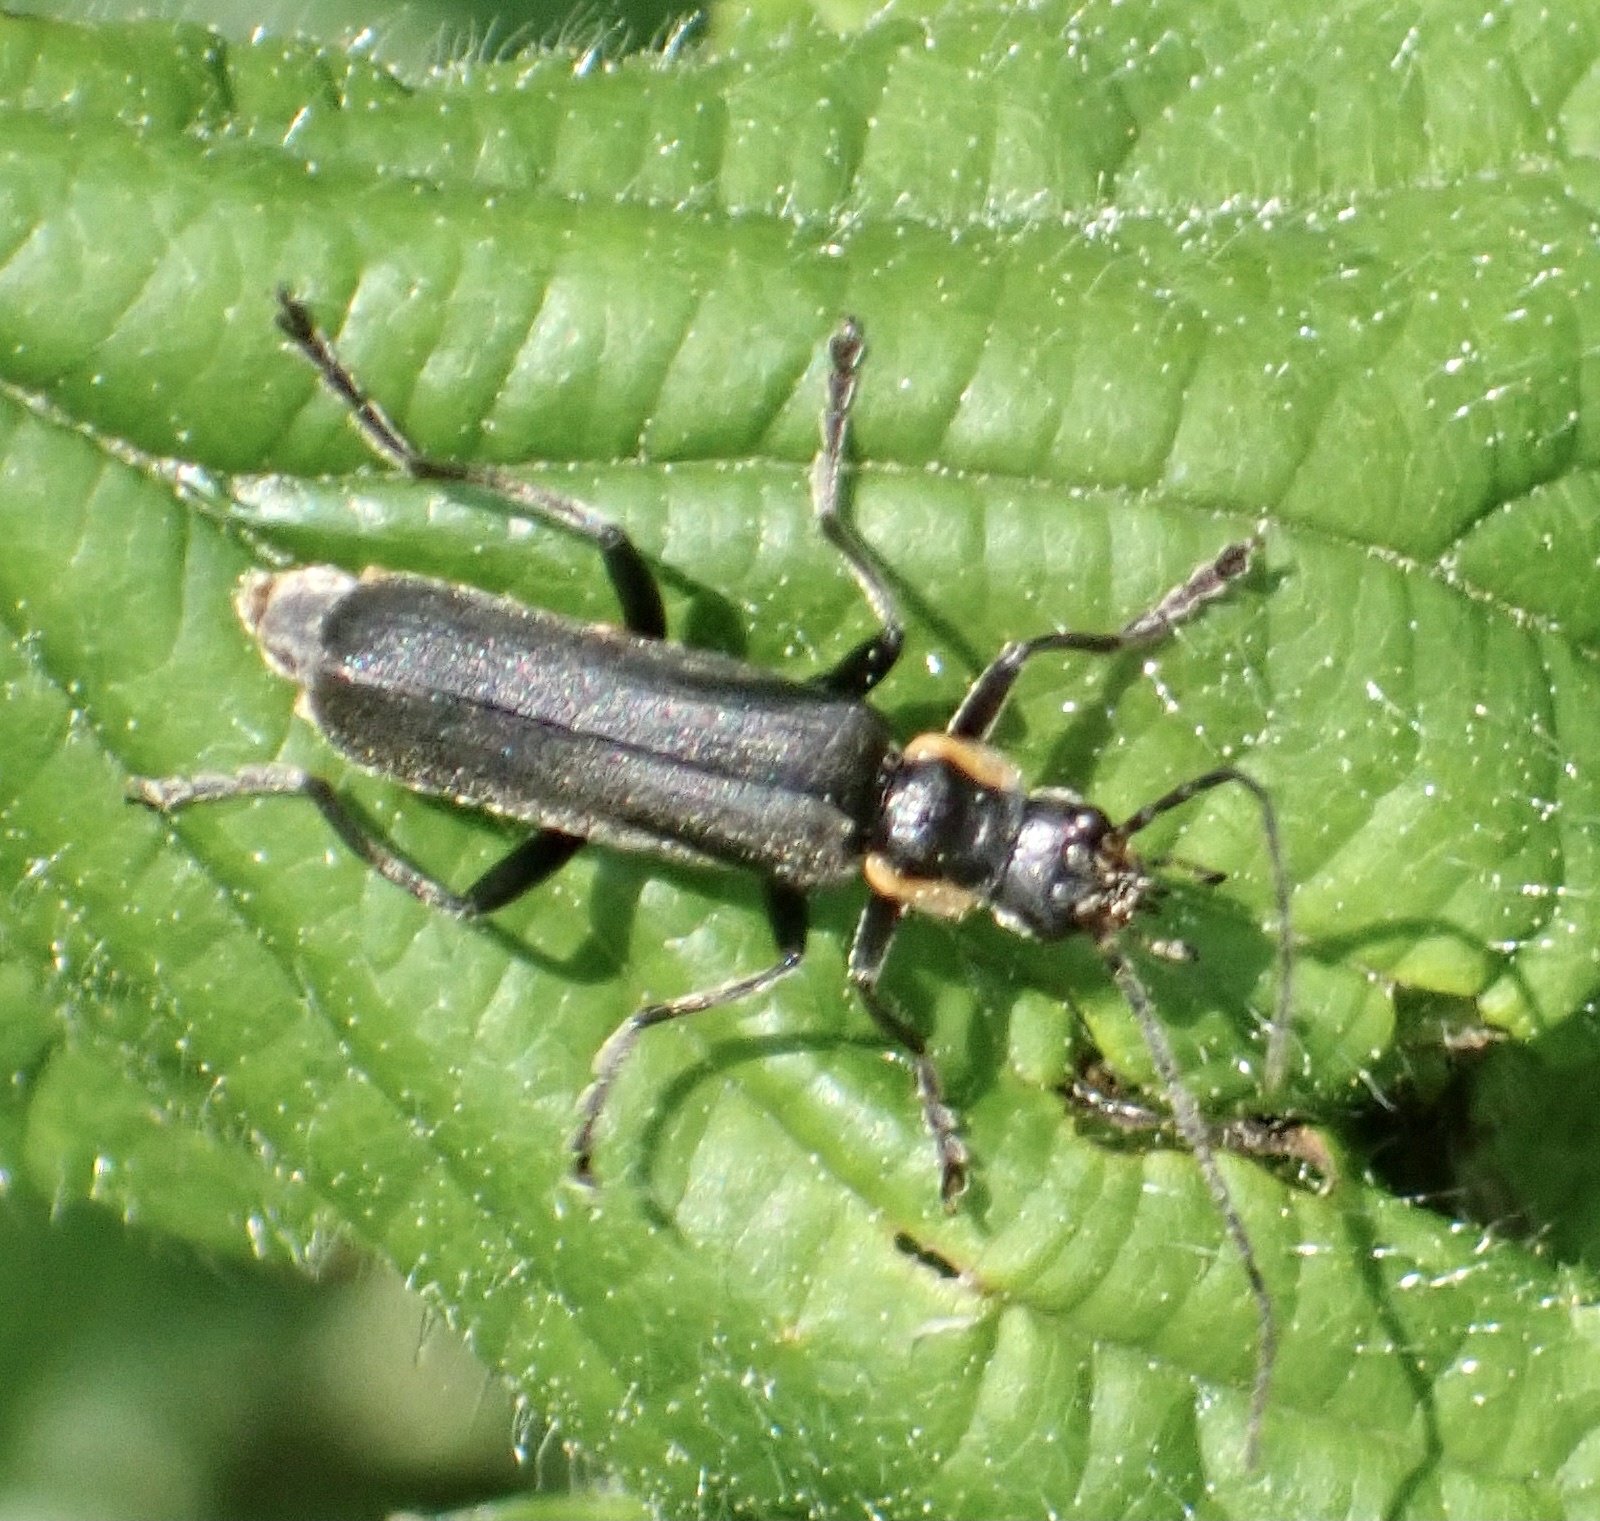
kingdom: Animalia
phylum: Arthropoda
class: Insecta
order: Coleoptera
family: Cantharidae
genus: Cantharis
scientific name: Cantharis obscura
